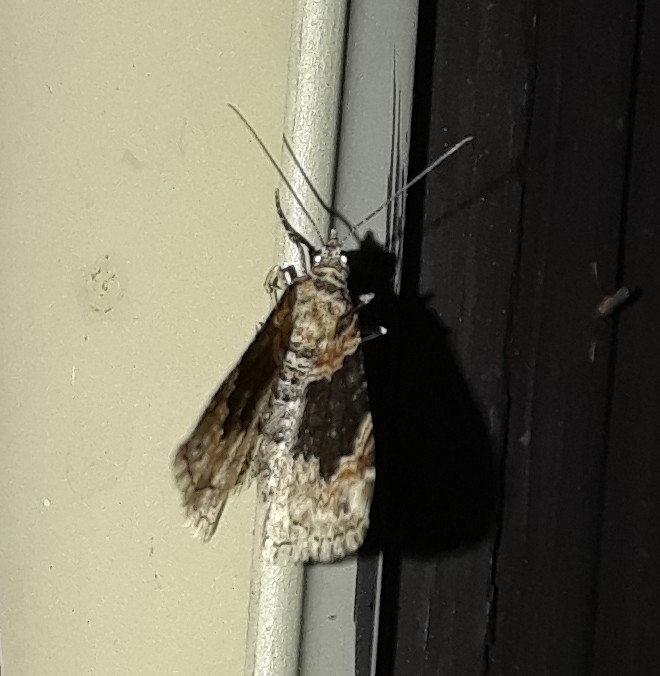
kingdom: Animalia
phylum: Arthropoda
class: Insecta
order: Lepidoptera
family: Geometridae
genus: Xanthorhoe
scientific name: Xanthorhoe ferrugata
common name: Dark-barred twin-spot carpet
